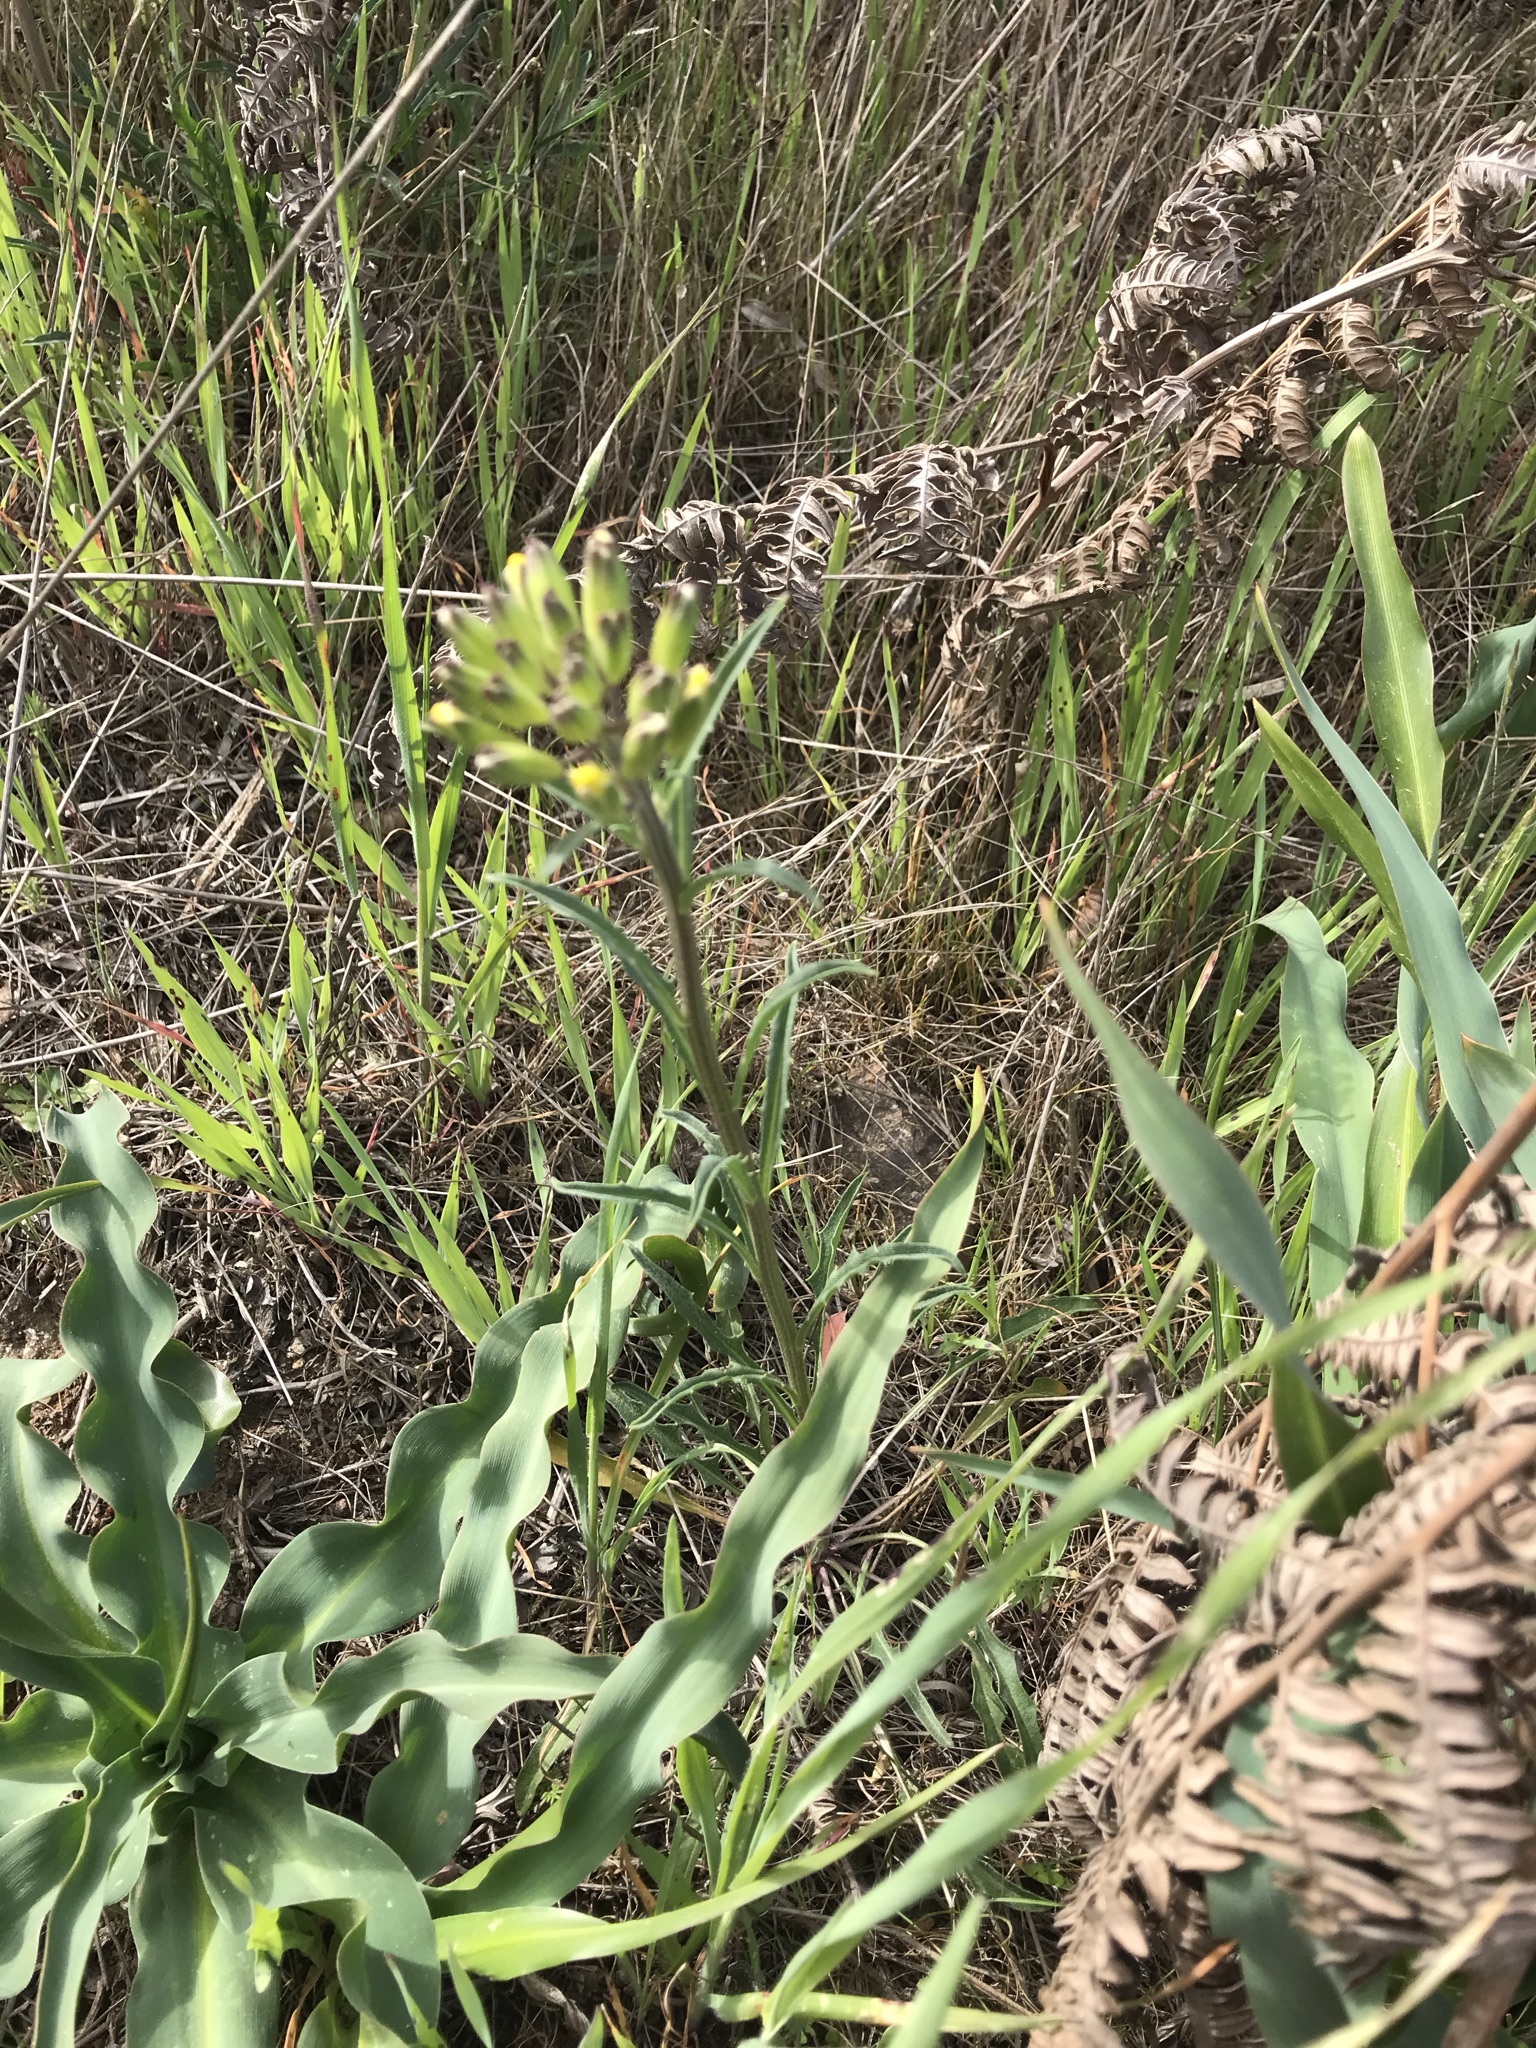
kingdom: Plantae
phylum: Tracheophyta
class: Magnoliopsida
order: Brassicales
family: Brassicaceae
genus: Erysimum
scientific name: Erysimum franciscanum
